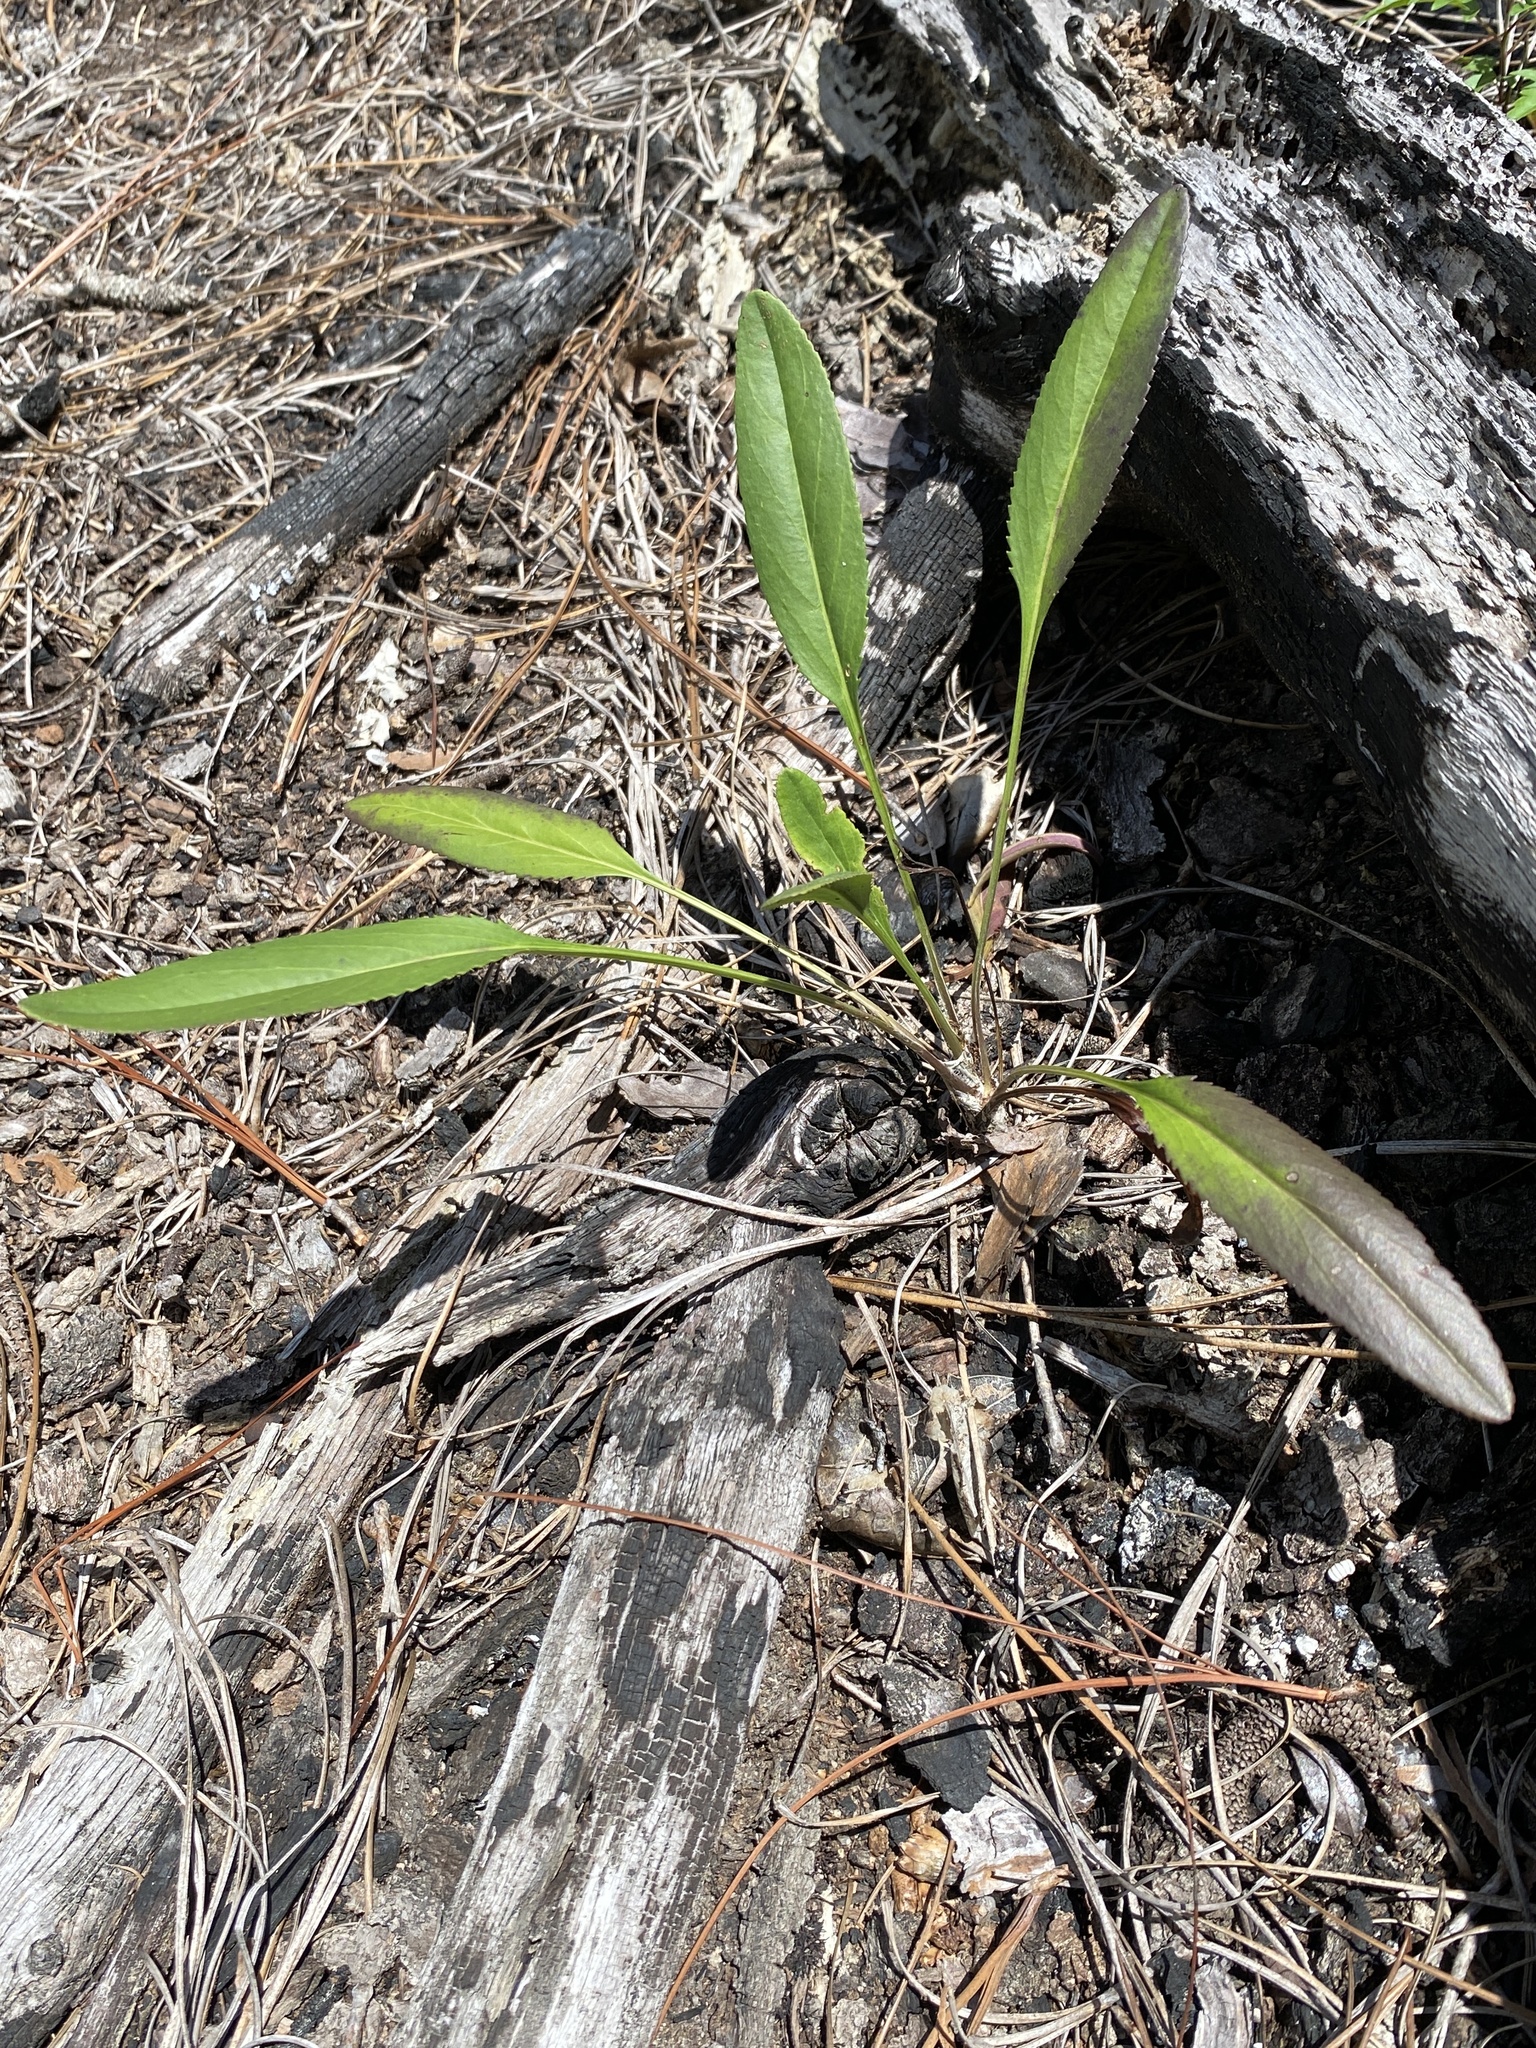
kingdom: Plantae
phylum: Tracheophyta
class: Magnoliopsida
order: Asterales
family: Asteraceae
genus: Packera
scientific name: Packera anonyma
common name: Small ragwort
